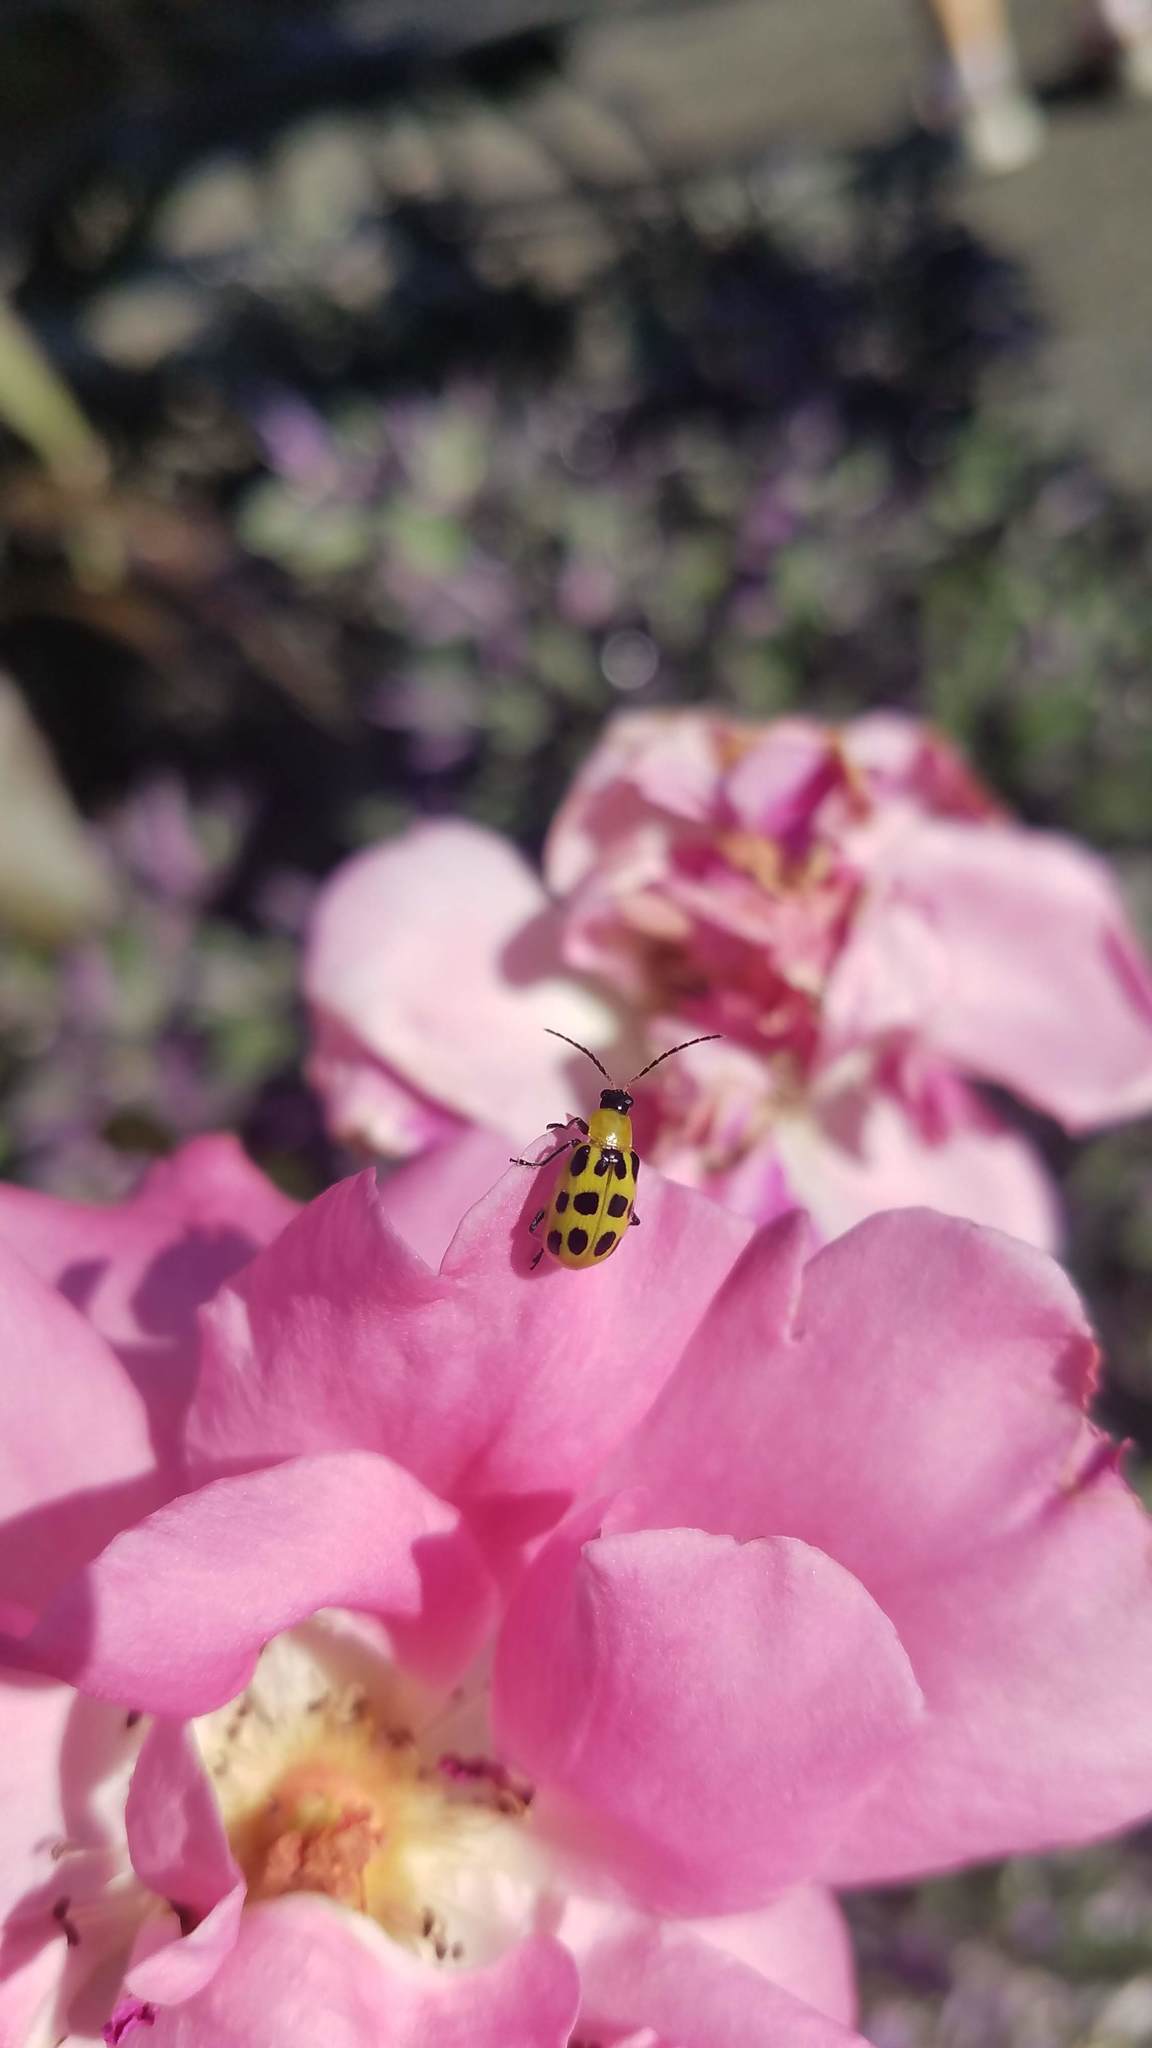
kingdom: Animalia
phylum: Arthropoda
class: Insecta
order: Coleoptera
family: Chrysomelidae
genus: Diabrotica
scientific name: Diabrotica undecimpunctata
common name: Spotted cucumber beetle
